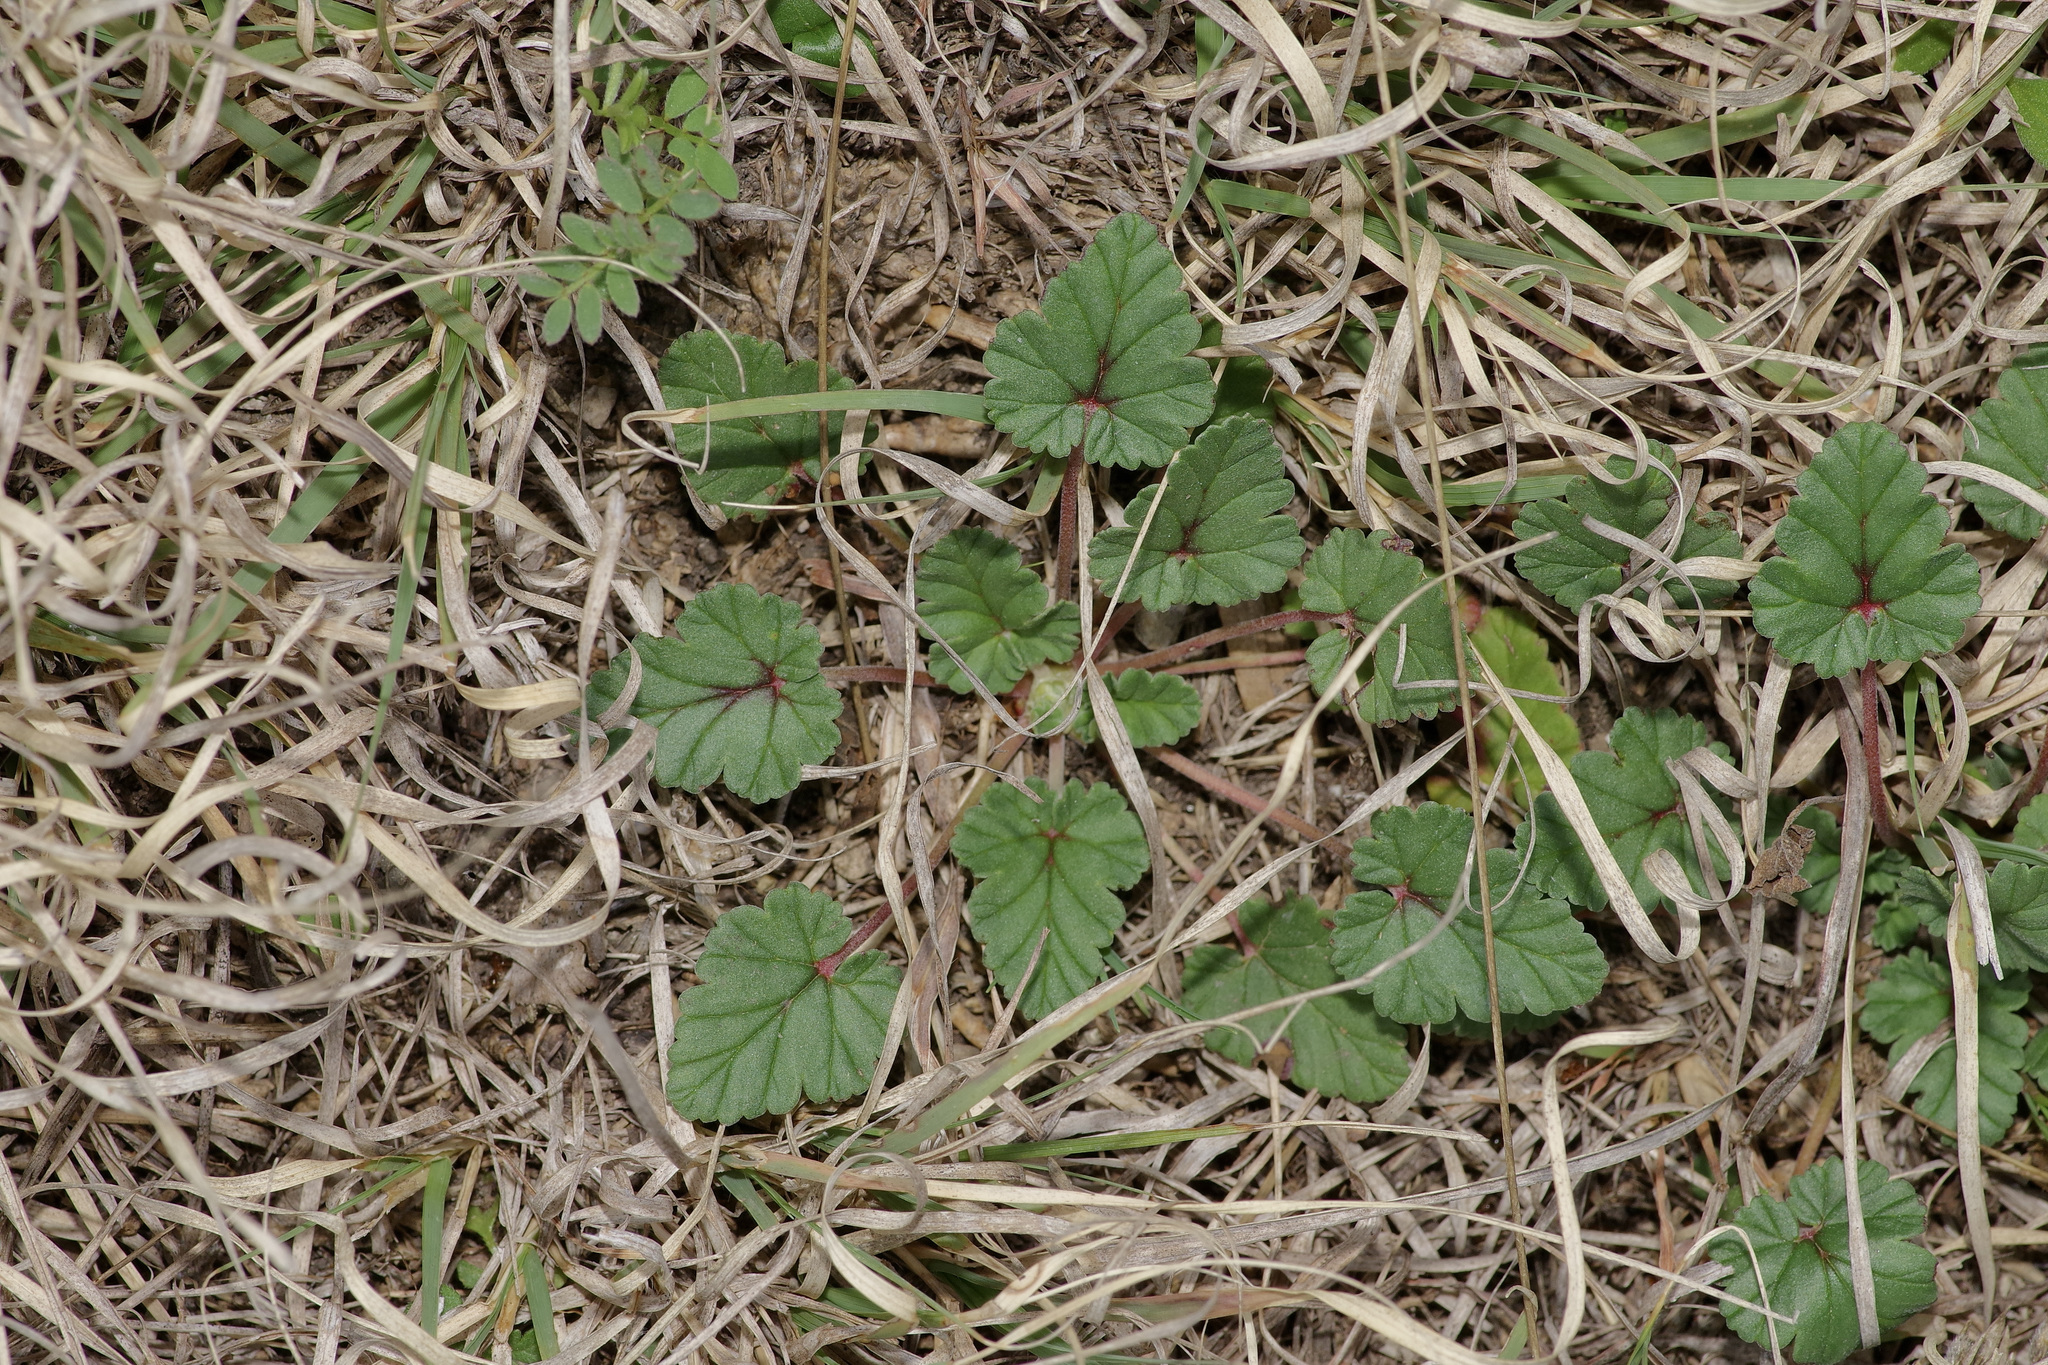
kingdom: Plantae
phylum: Tracheophyta
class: Magnoliopsida
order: Geraniales
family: Geraniaceae
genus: Erodium
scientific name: Erodium texanum
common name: Texas stork's-bill
